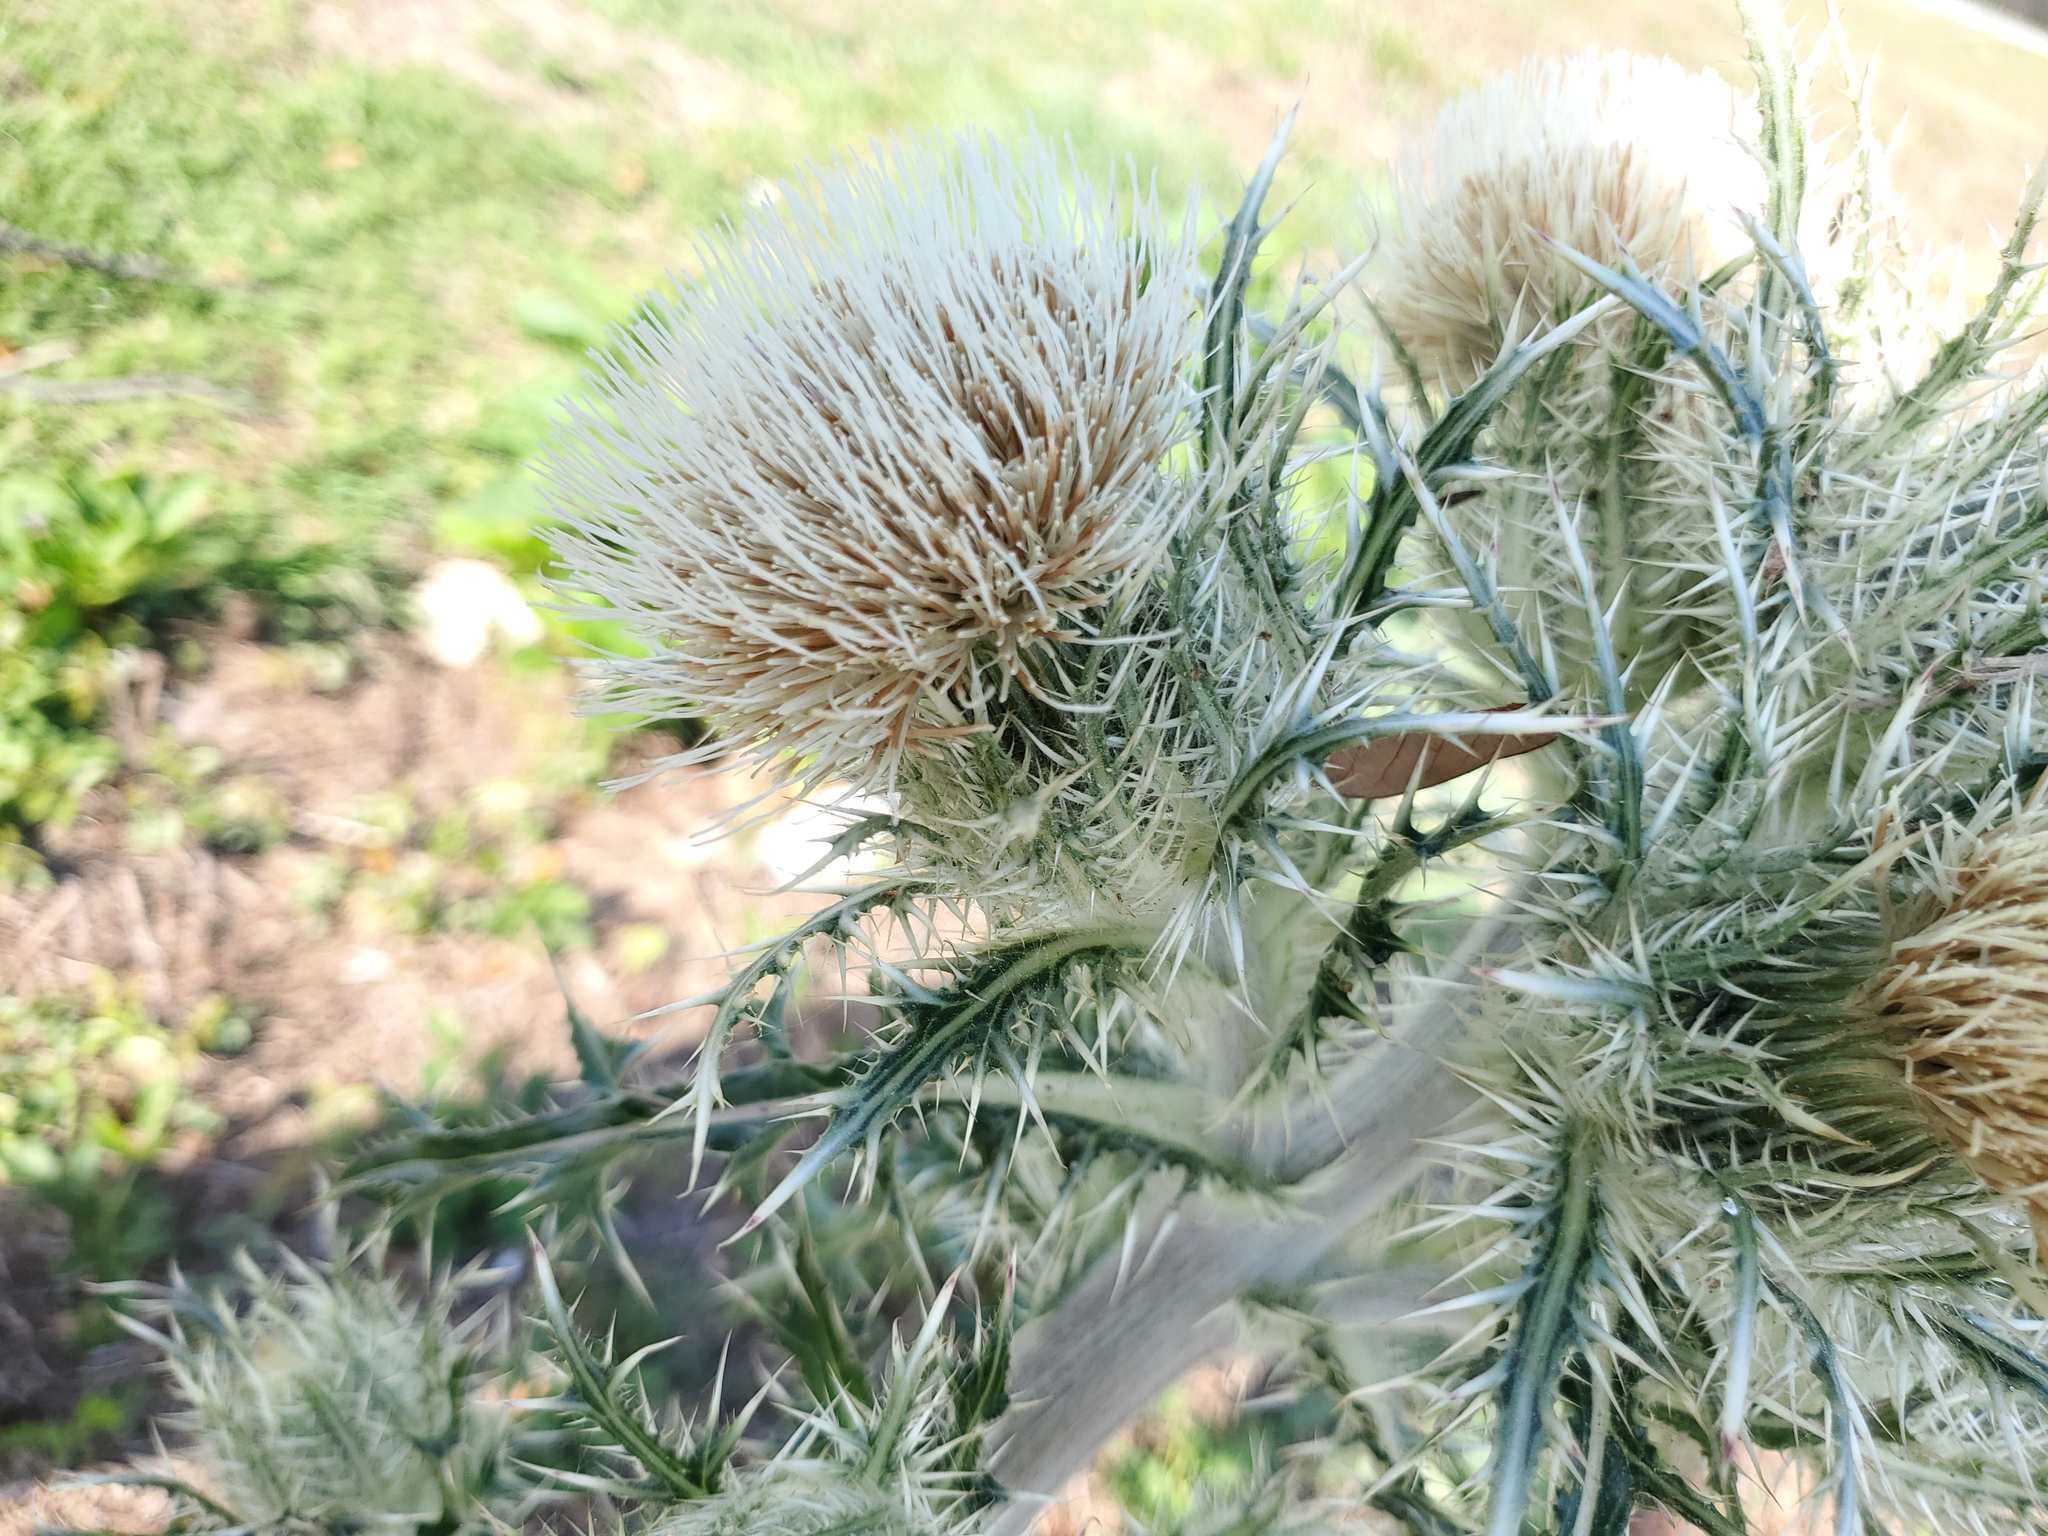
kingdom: Plantae
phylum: Tracheophyta
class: Magnoliopsida
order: Asterales
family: Asteraceae
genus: Cirsium
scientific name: Cirsium horridulum
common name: Bristly thistle
